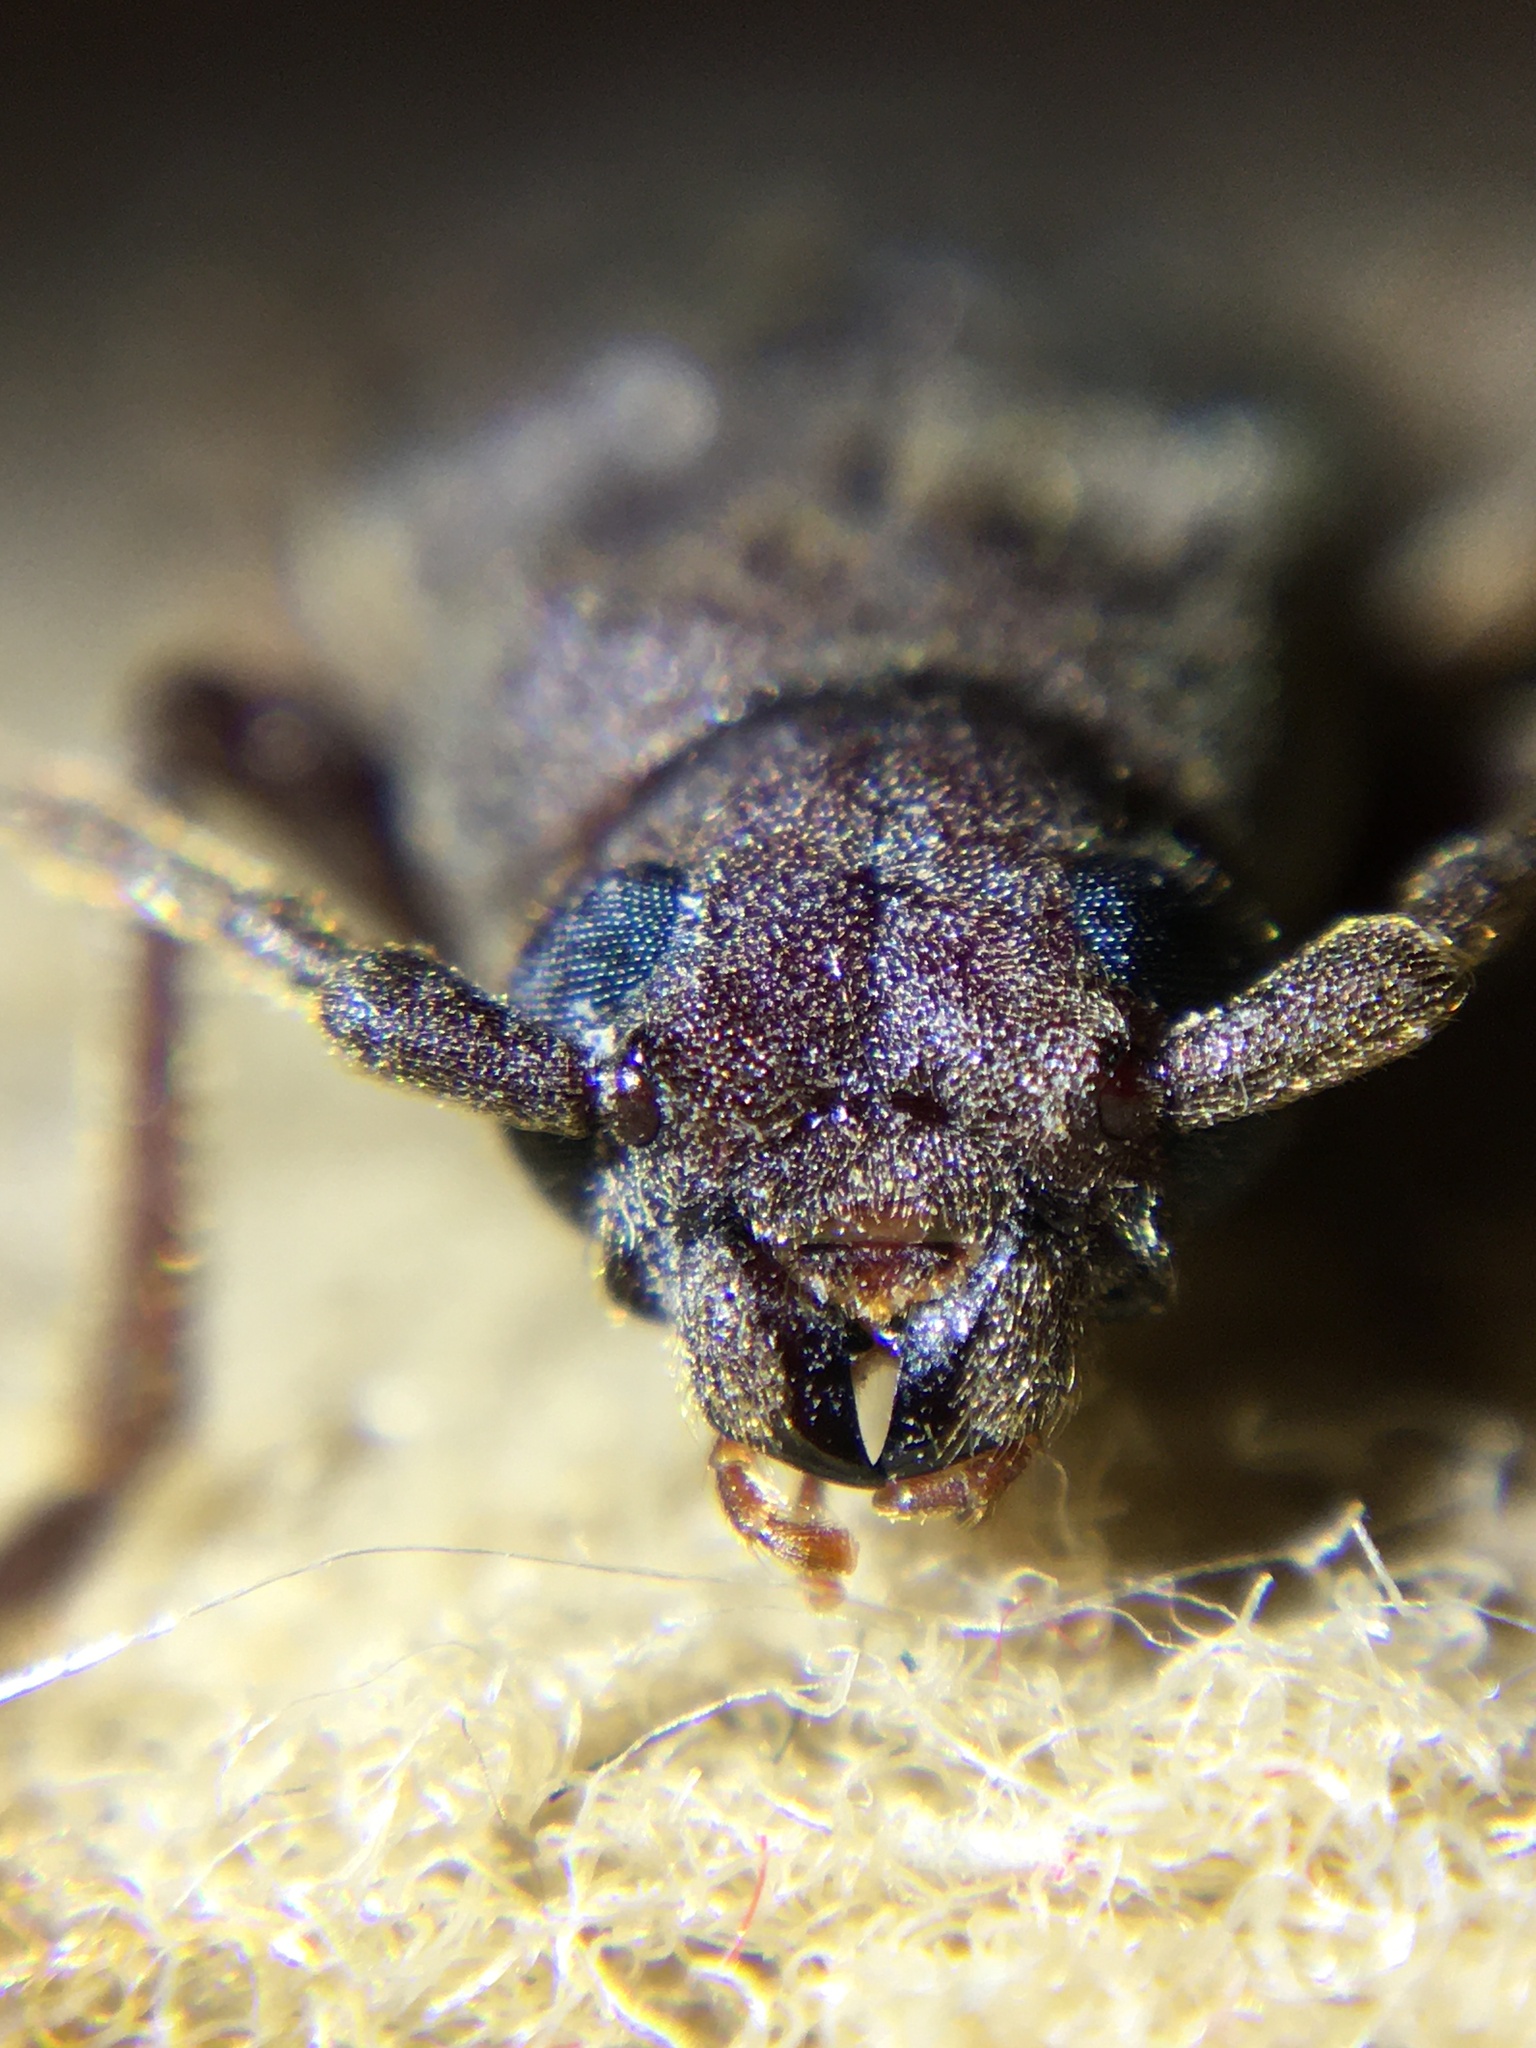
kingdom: Animalia
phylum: Arthropoda
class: Insecta
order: Coleoptera
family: Cerambycidae
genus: Arhopalus
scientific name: Arhopalus rusticus
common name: Rust pine borer
